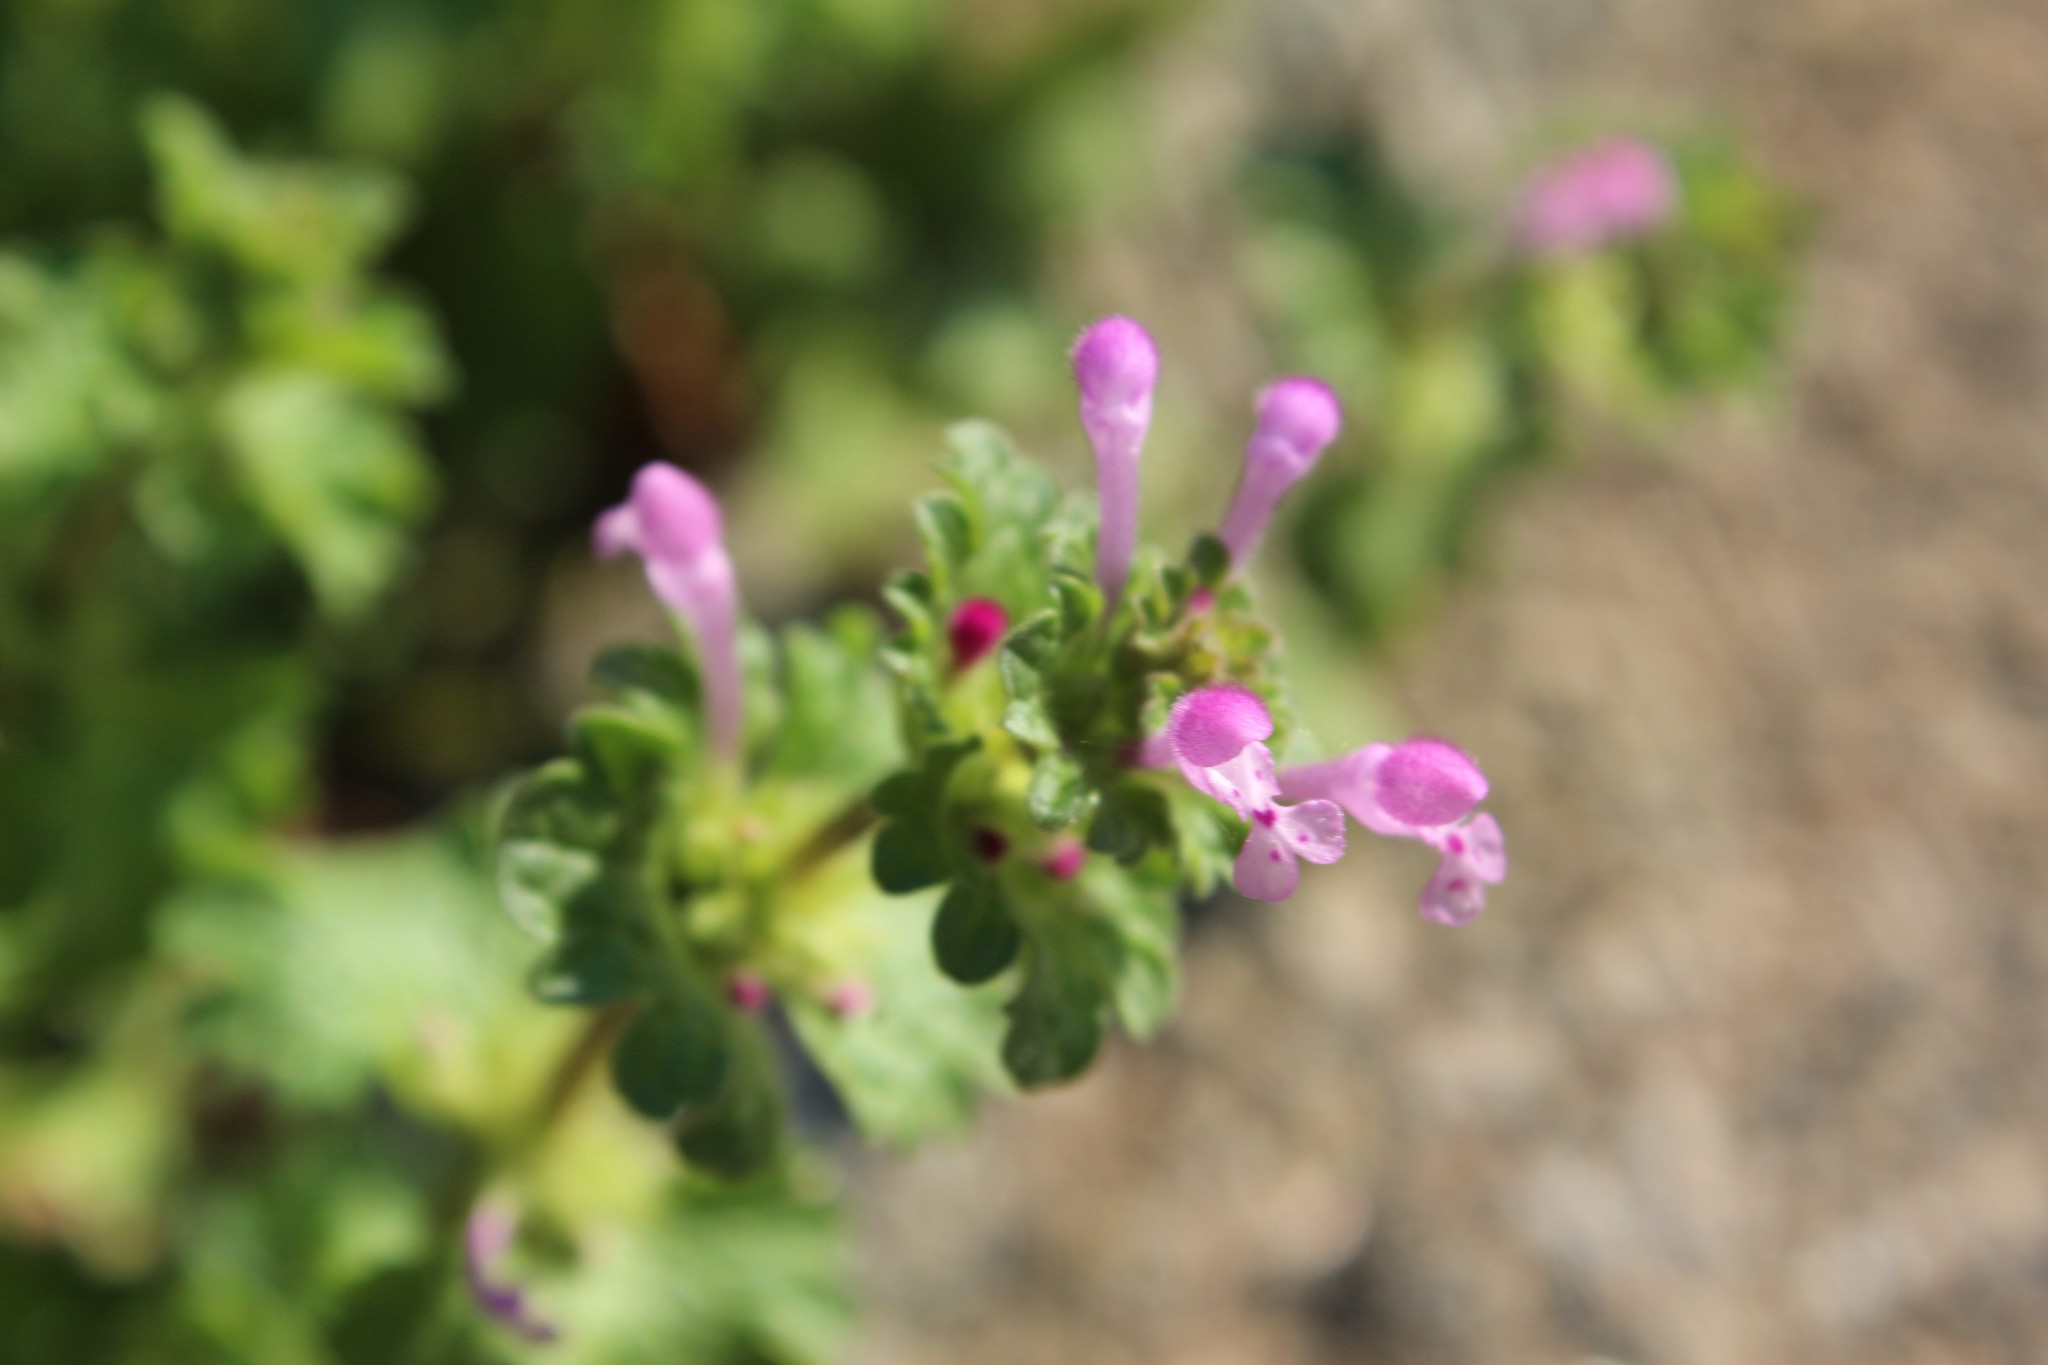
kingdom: Plantae
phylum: Tracheophyta
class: Magnoliopsida
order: Lamiales
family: Lamiaceae
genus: Lamium
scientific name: Lamium amplexicaule
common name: Henbit dead-nettle
